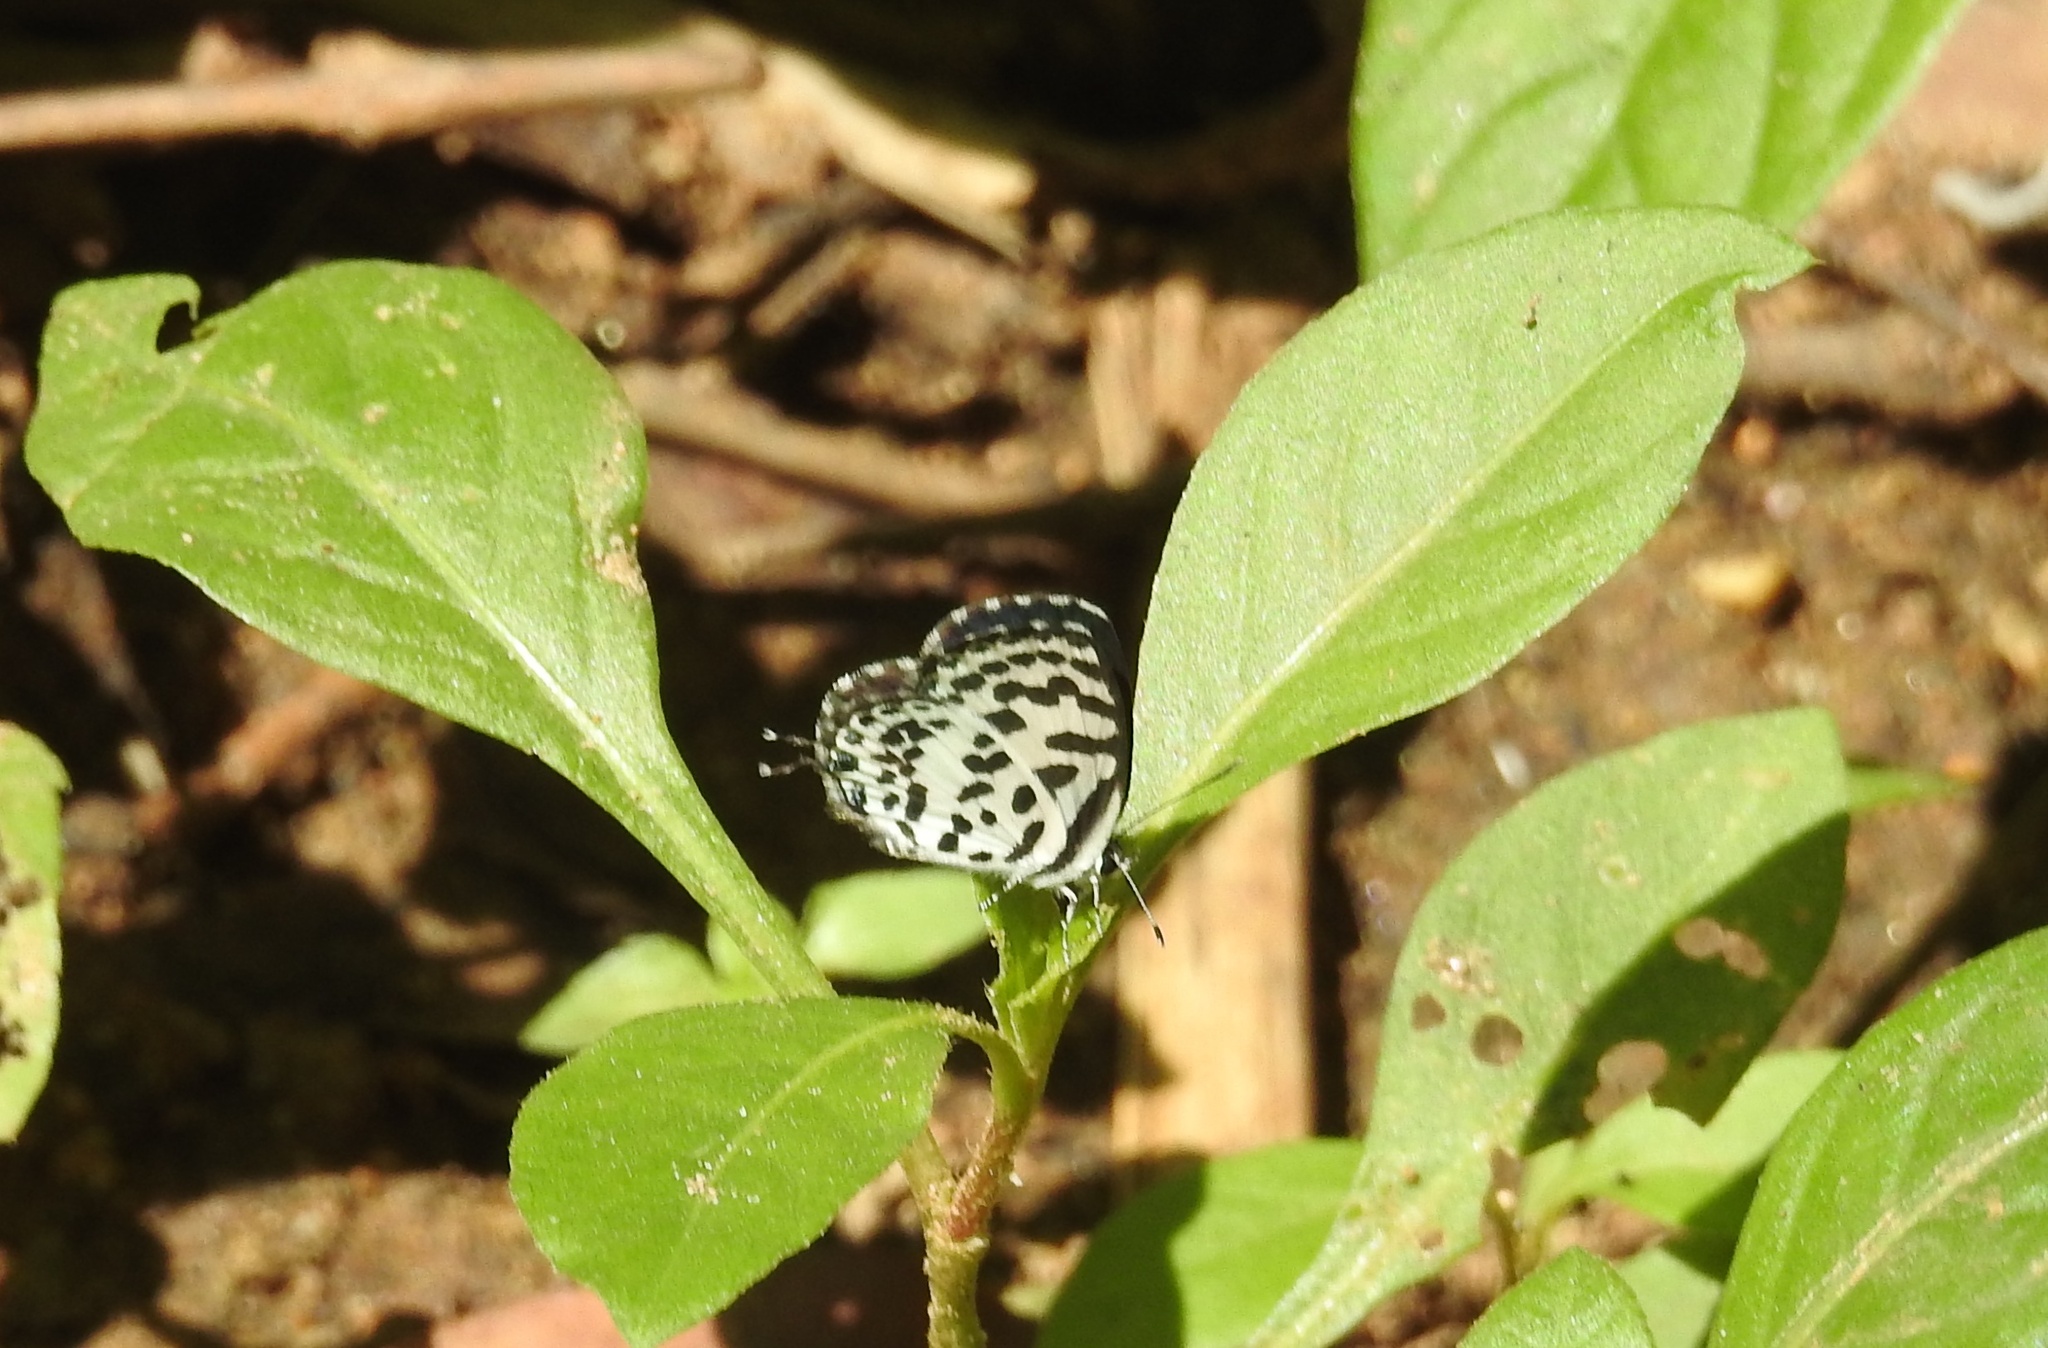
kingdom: Animalia
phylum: Arthropoda
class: Insecta
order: Lepidoptera
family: Lycaenidae
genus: Castalius
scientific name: Castalius rosimon
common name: Common pierrot
